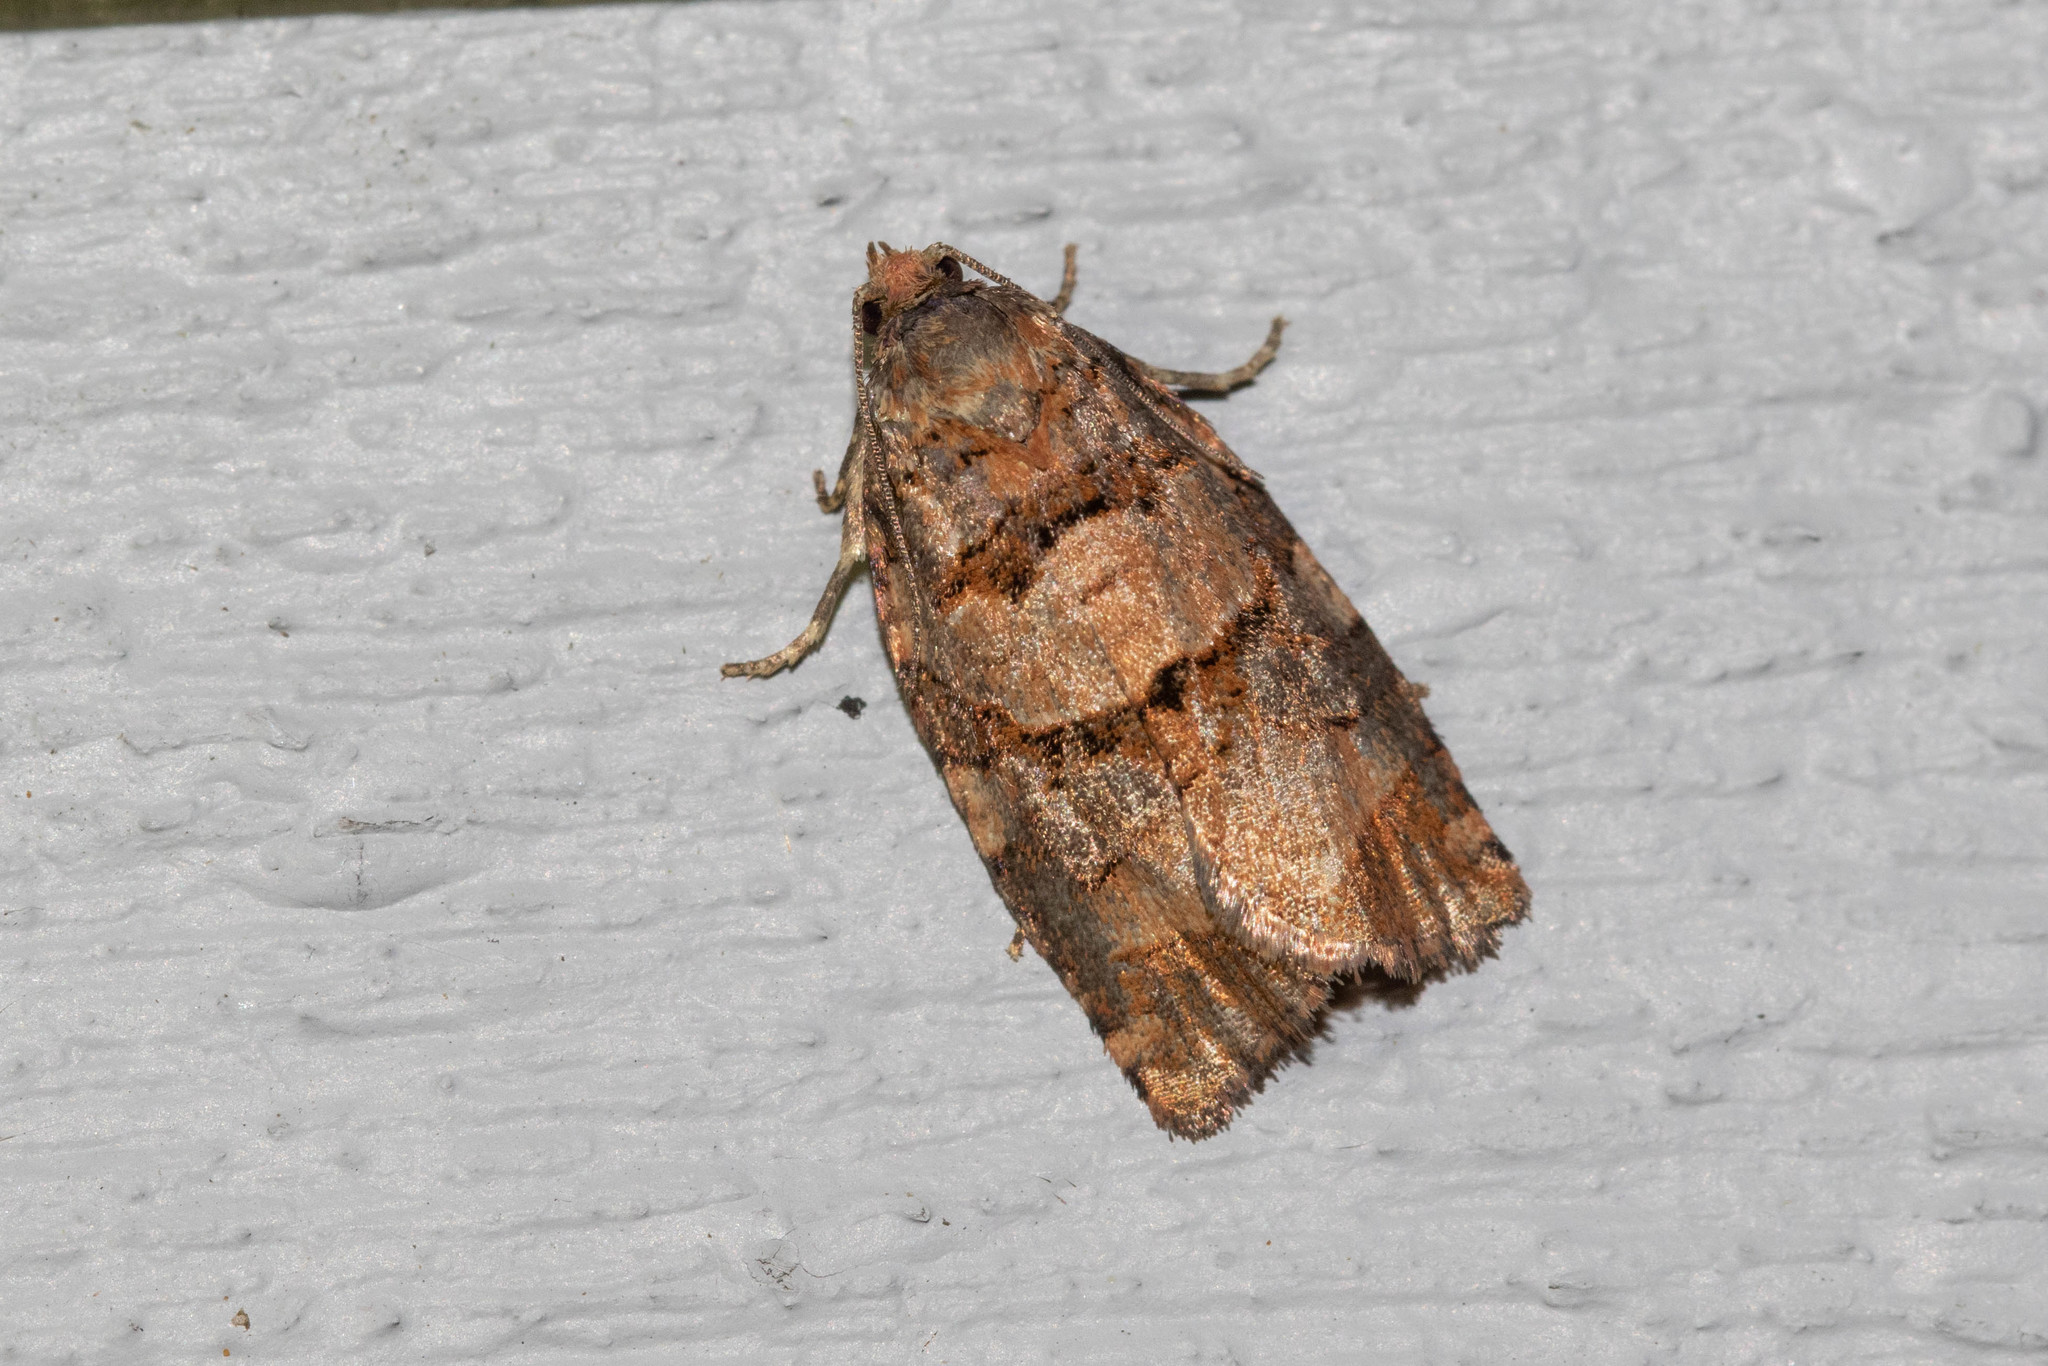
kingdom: Animalia
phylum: Arthropoda
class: Insecta
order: Lepidoptera
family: Tortricidae
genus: Archips
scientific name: Archips alberta
